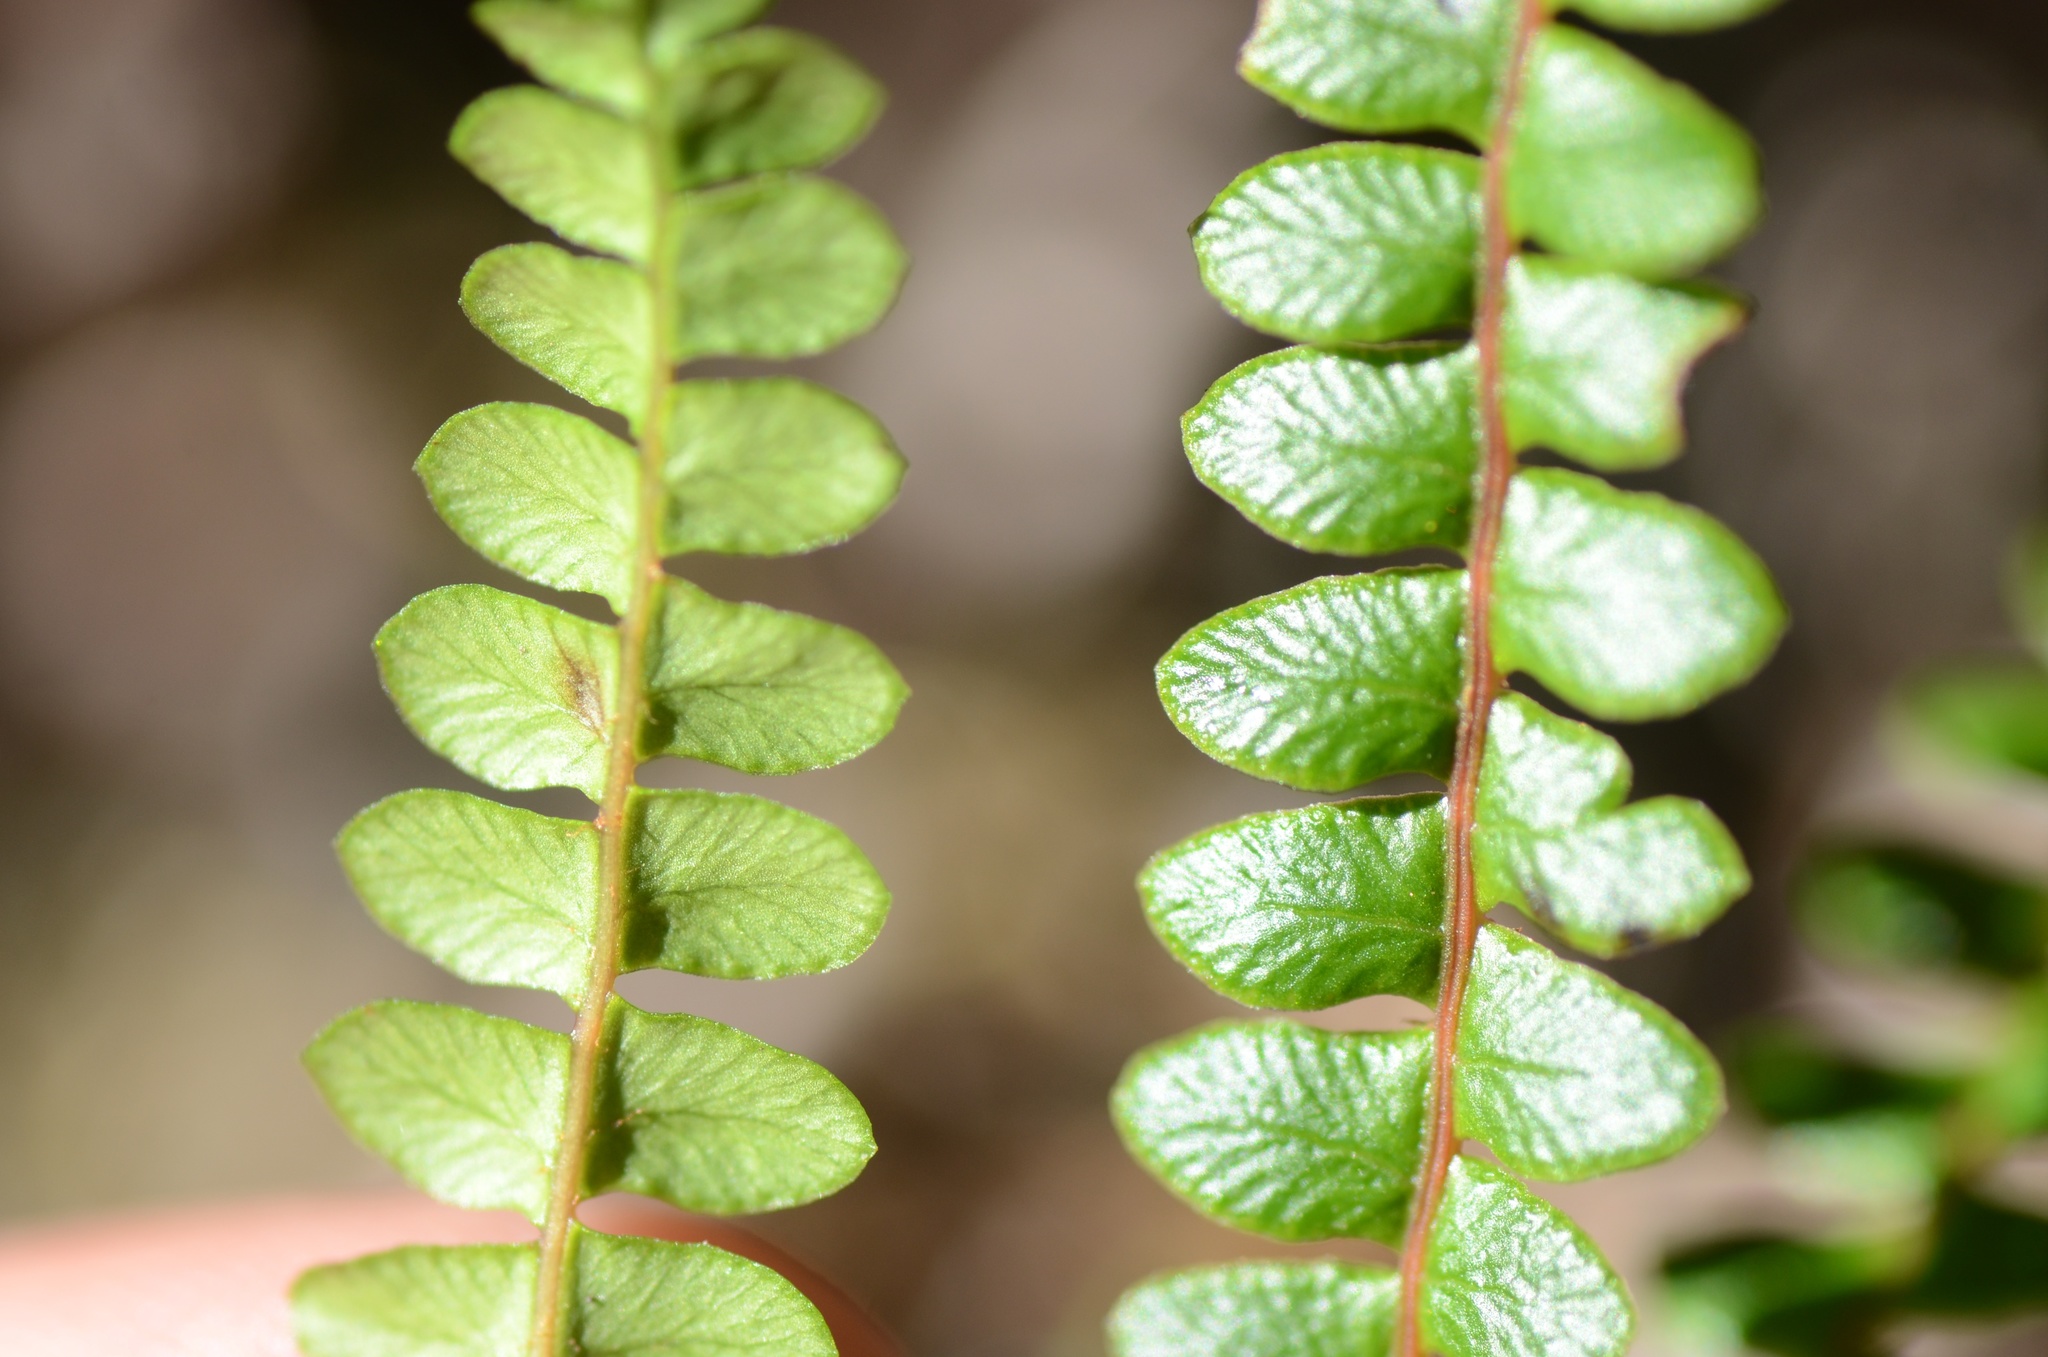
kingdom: Plantae
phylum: Tracheophyta
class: Polypodiopsida
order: Polypodiales
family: Blechnaceae
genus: Austroblechnum
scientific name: Austroblechnum penna-marina
